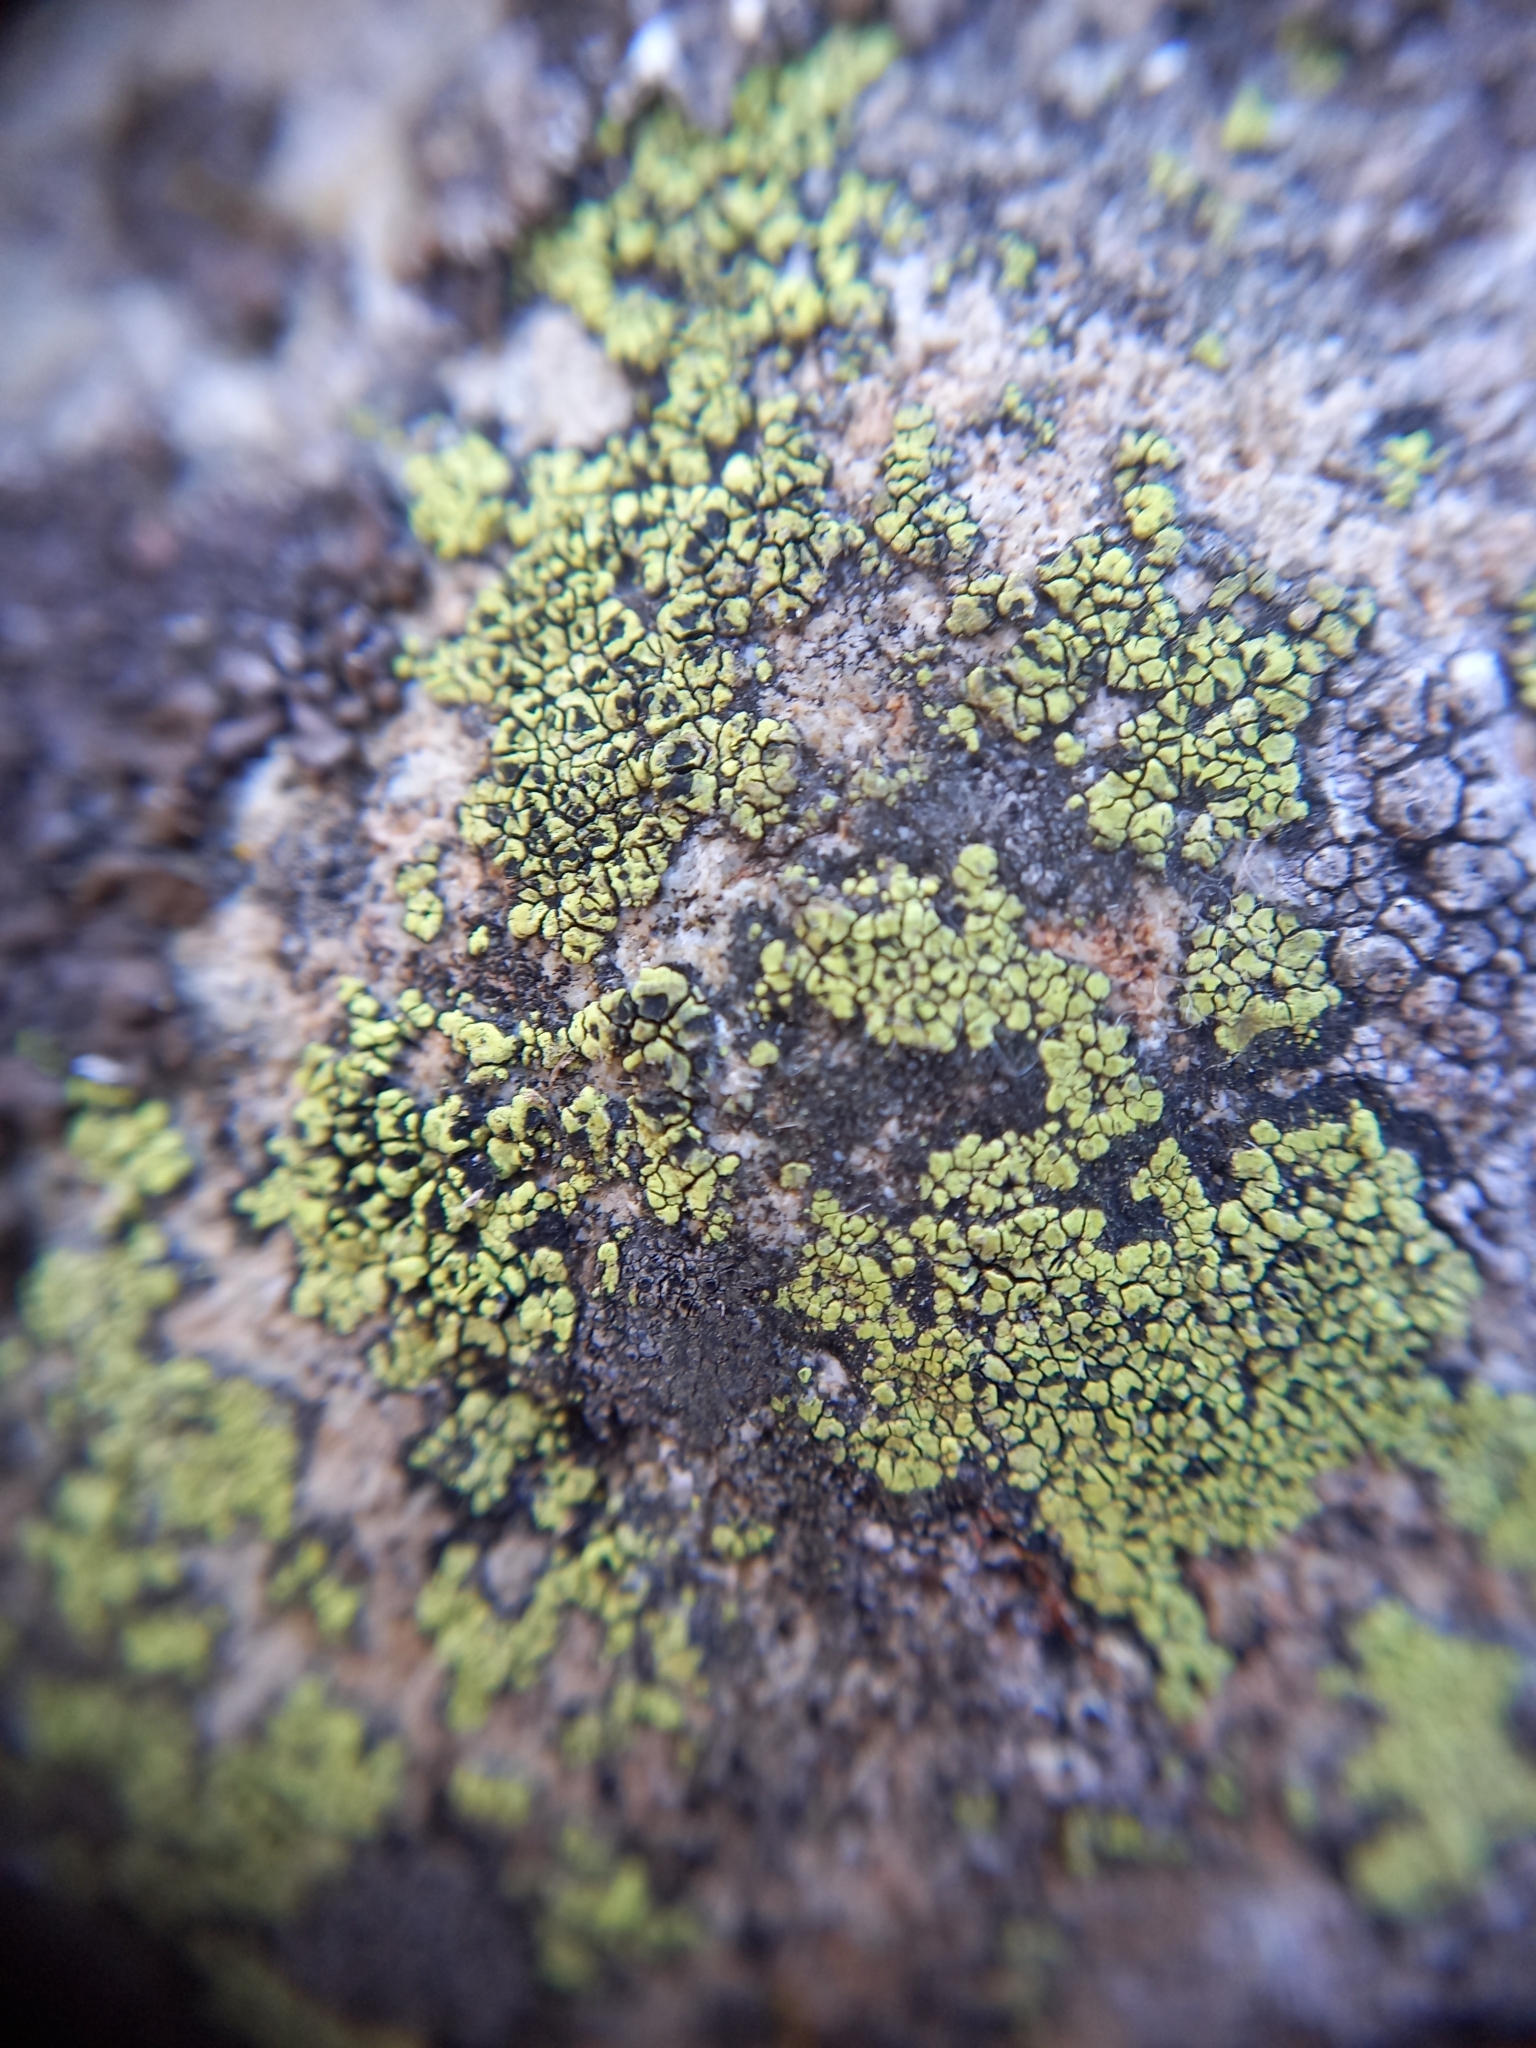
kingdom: Fungi
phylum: Ascomycota
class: Lecanoromycetes
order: Rhizocarpales
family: Rhizocarpaceae
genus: Rhizocarpon
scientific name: Rhizocarpon lecanorinum
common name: Crescent map lichen
